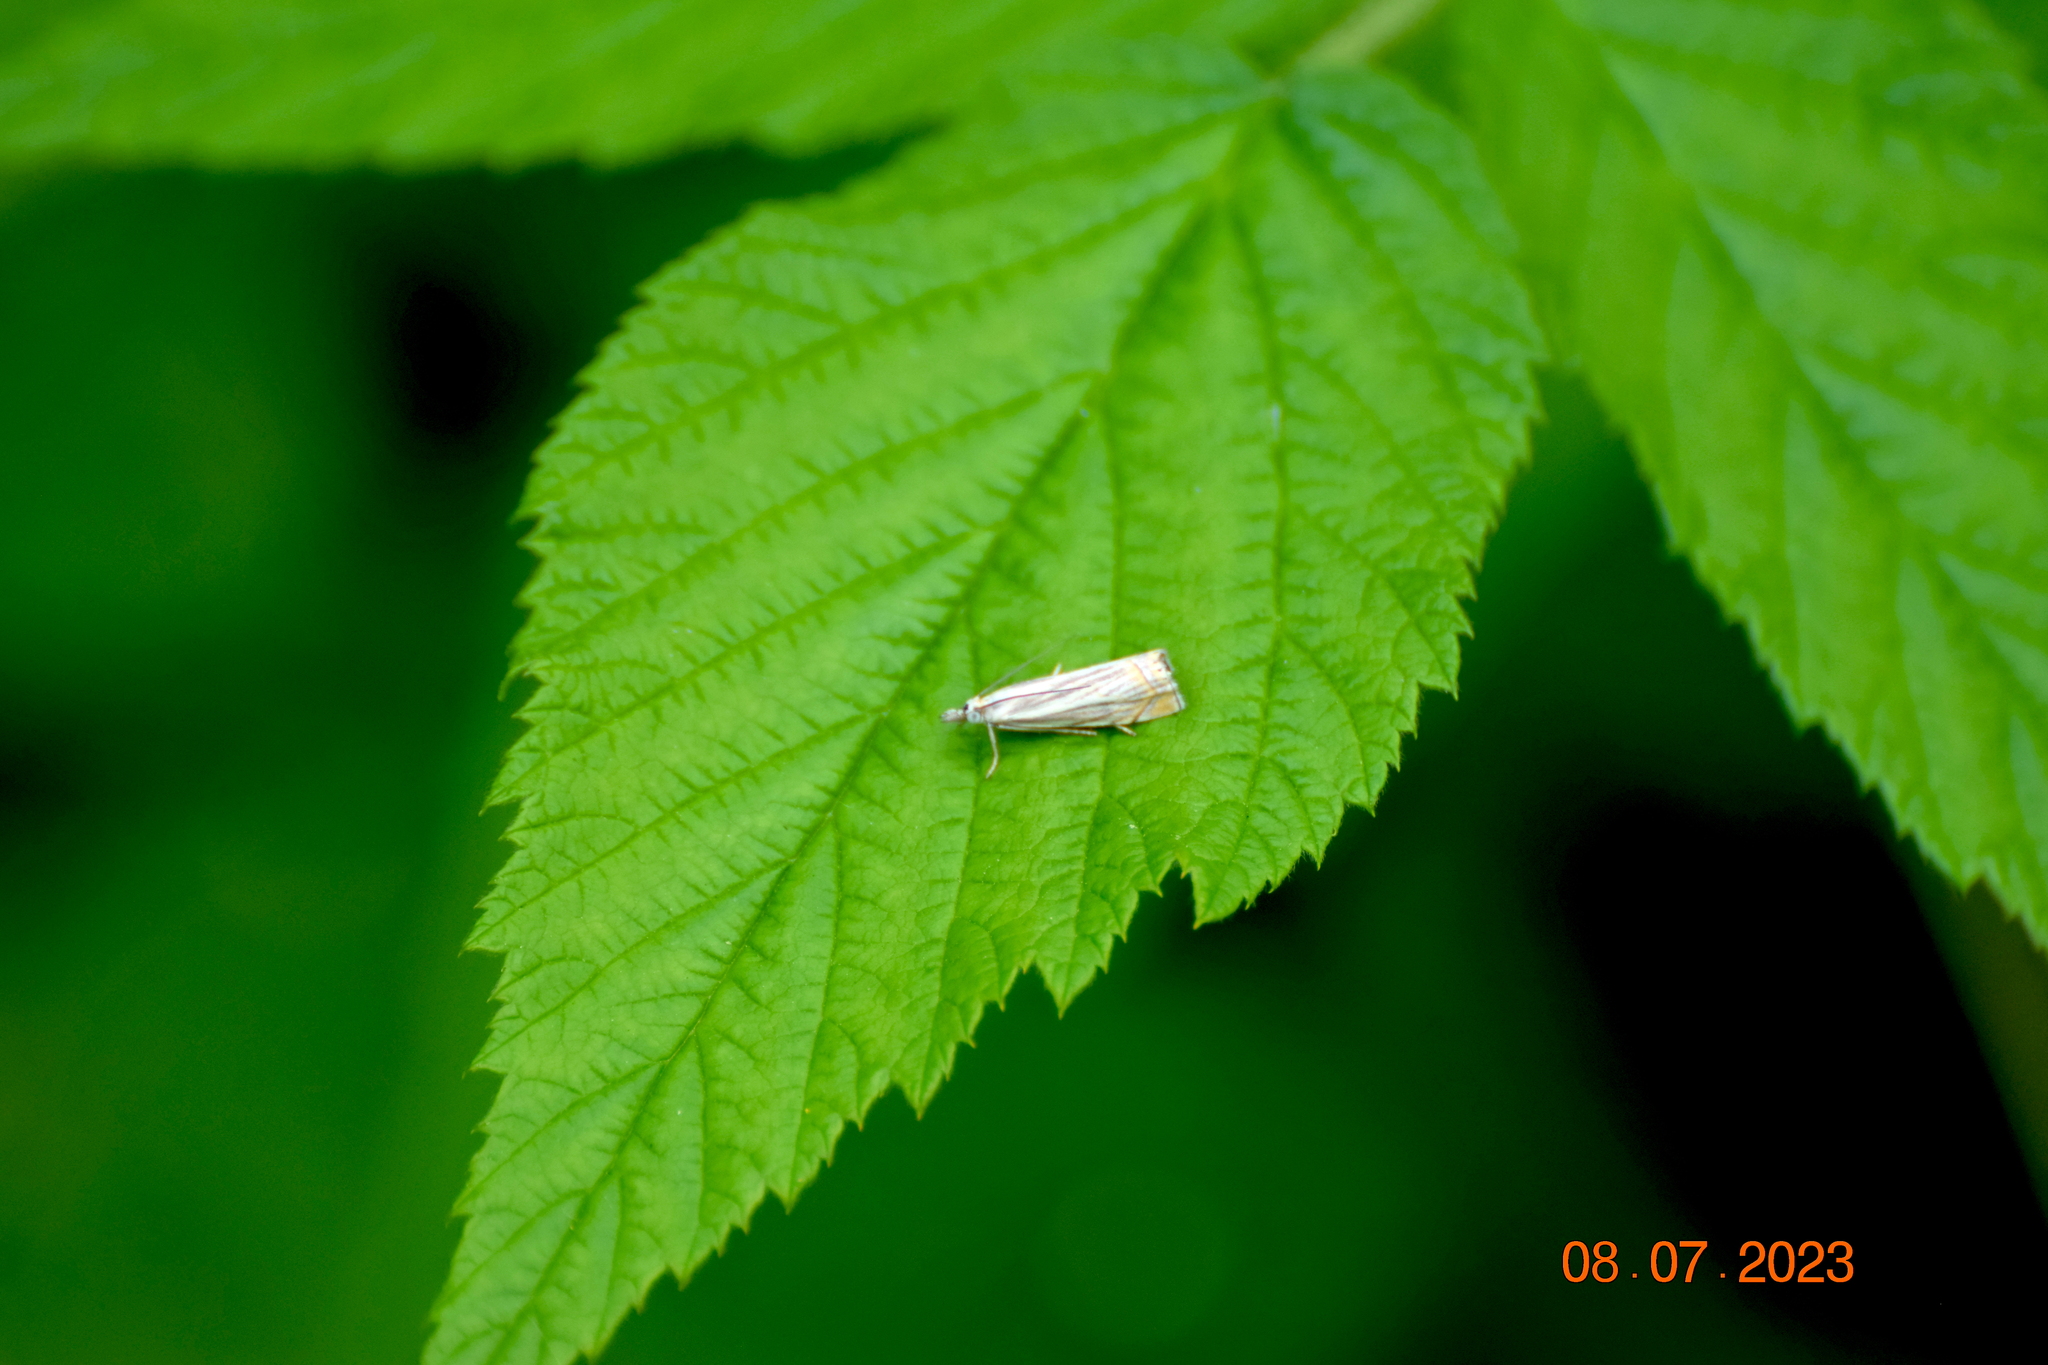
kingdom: Animalia
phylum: Arthropoda
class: Insecta
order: Lepidoptera
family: Crambidae
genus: Chrysoteuchia
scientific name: Chrysoteuchia topiarius
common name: Topiary grass-veneer
